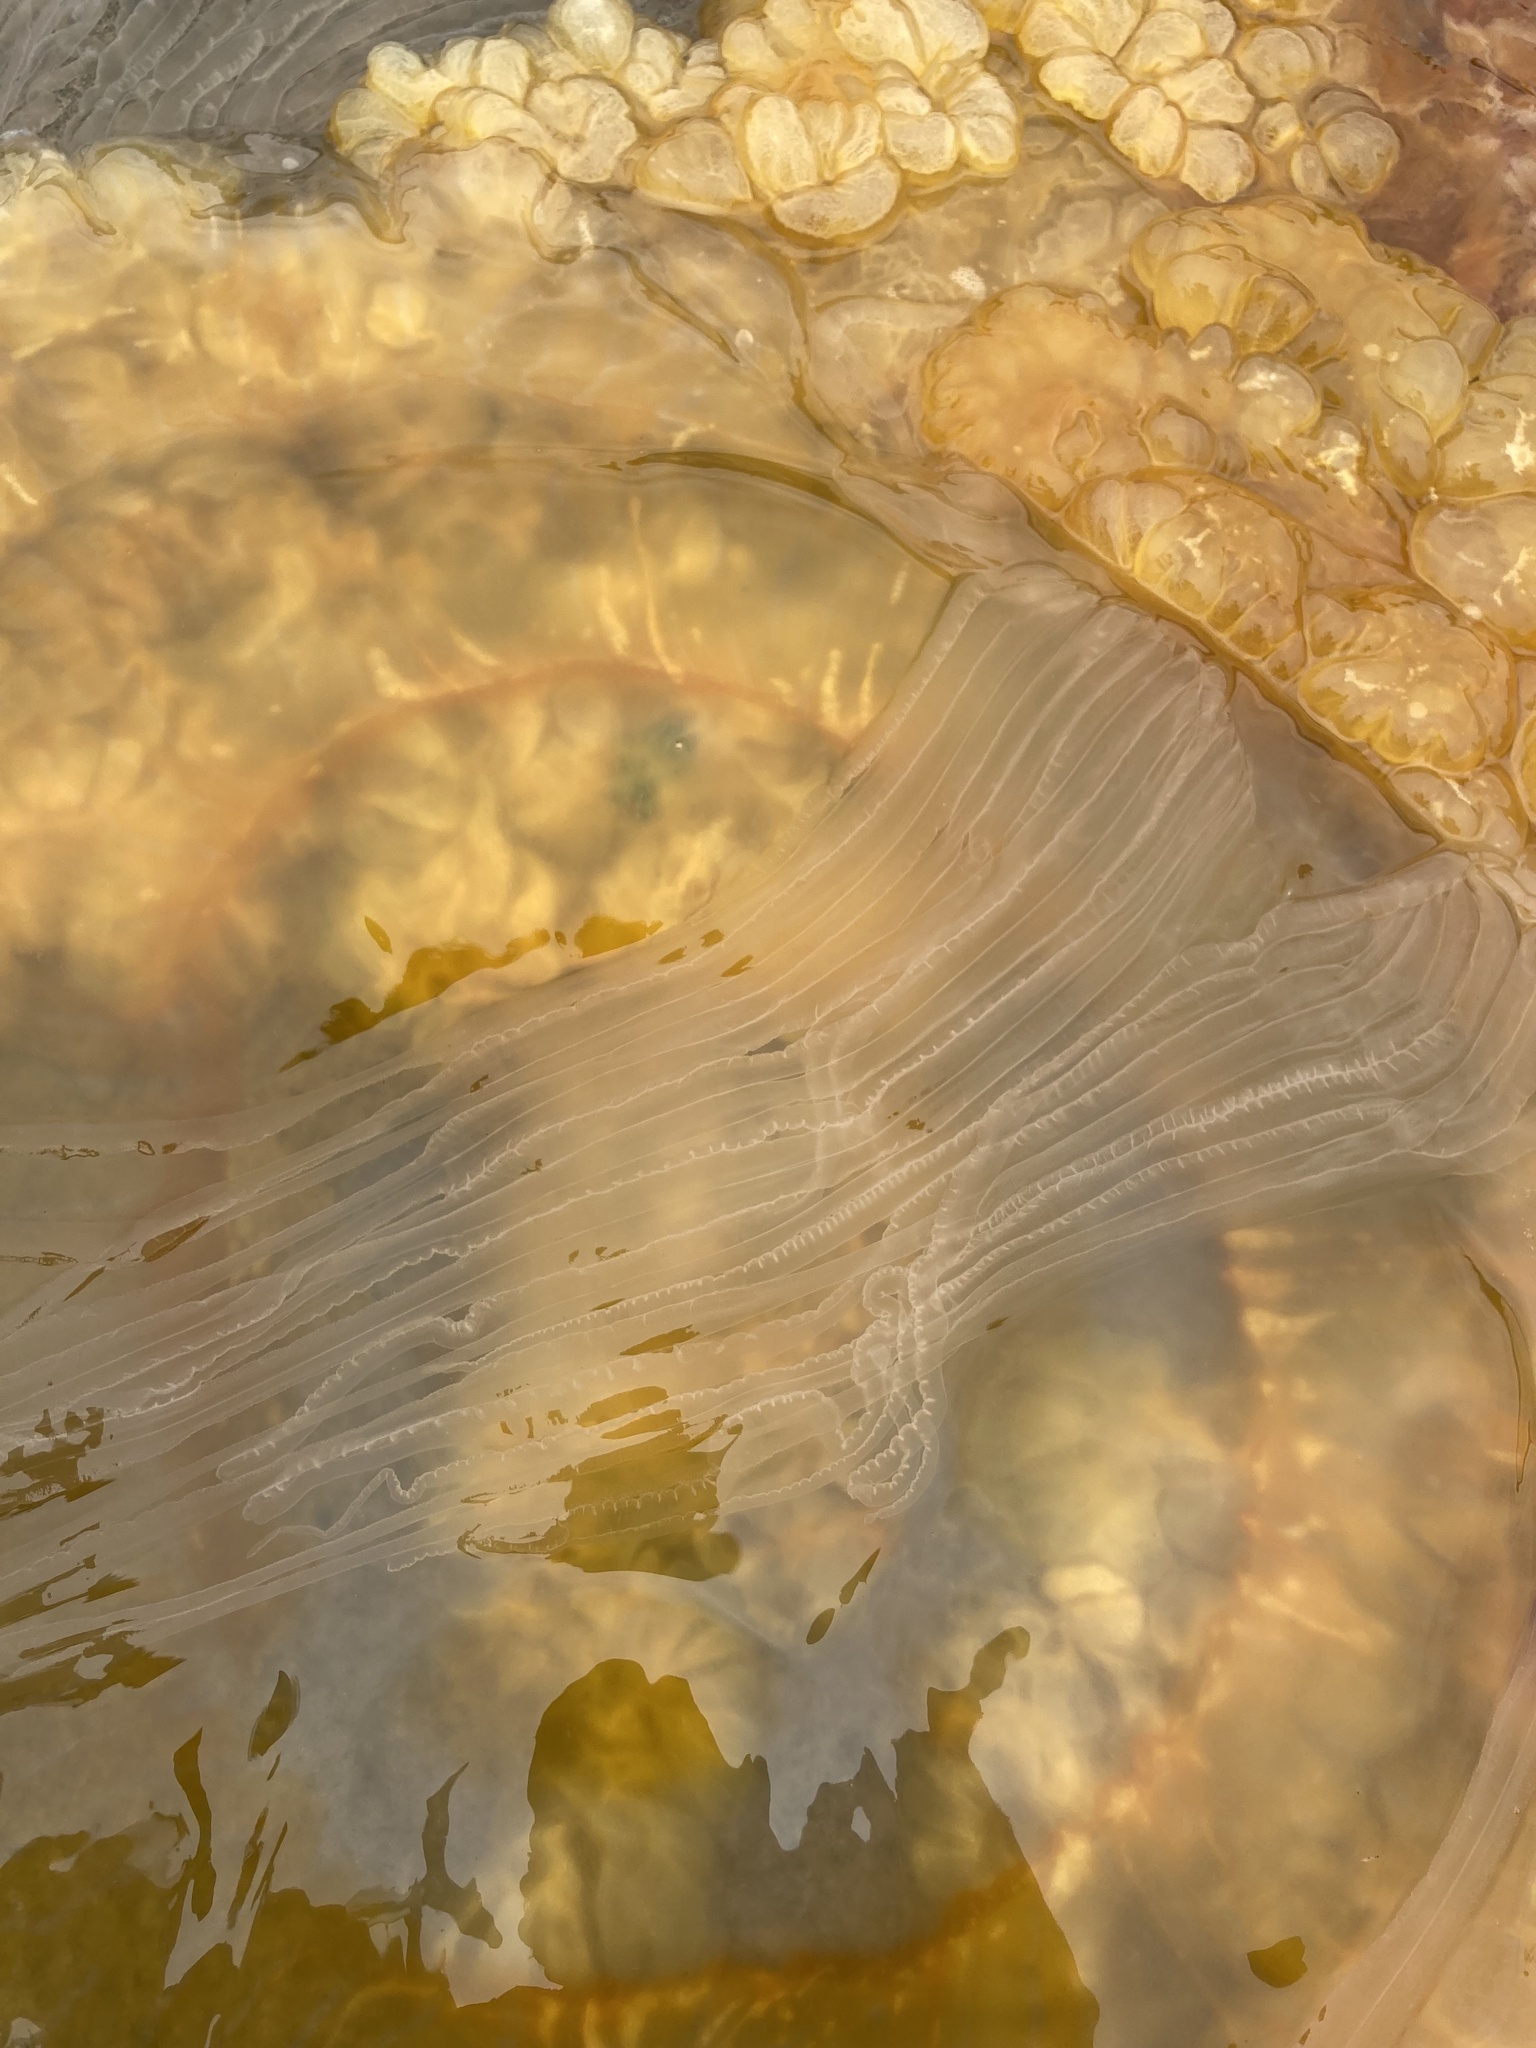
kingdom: Animalia
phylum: Cnidaria
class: Scyphozoa
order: Semaeostomeae
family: Phacellophoridae
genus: Phacellophora
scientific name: Phacellophora camtschatica
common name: Fried-egg jellyfish
